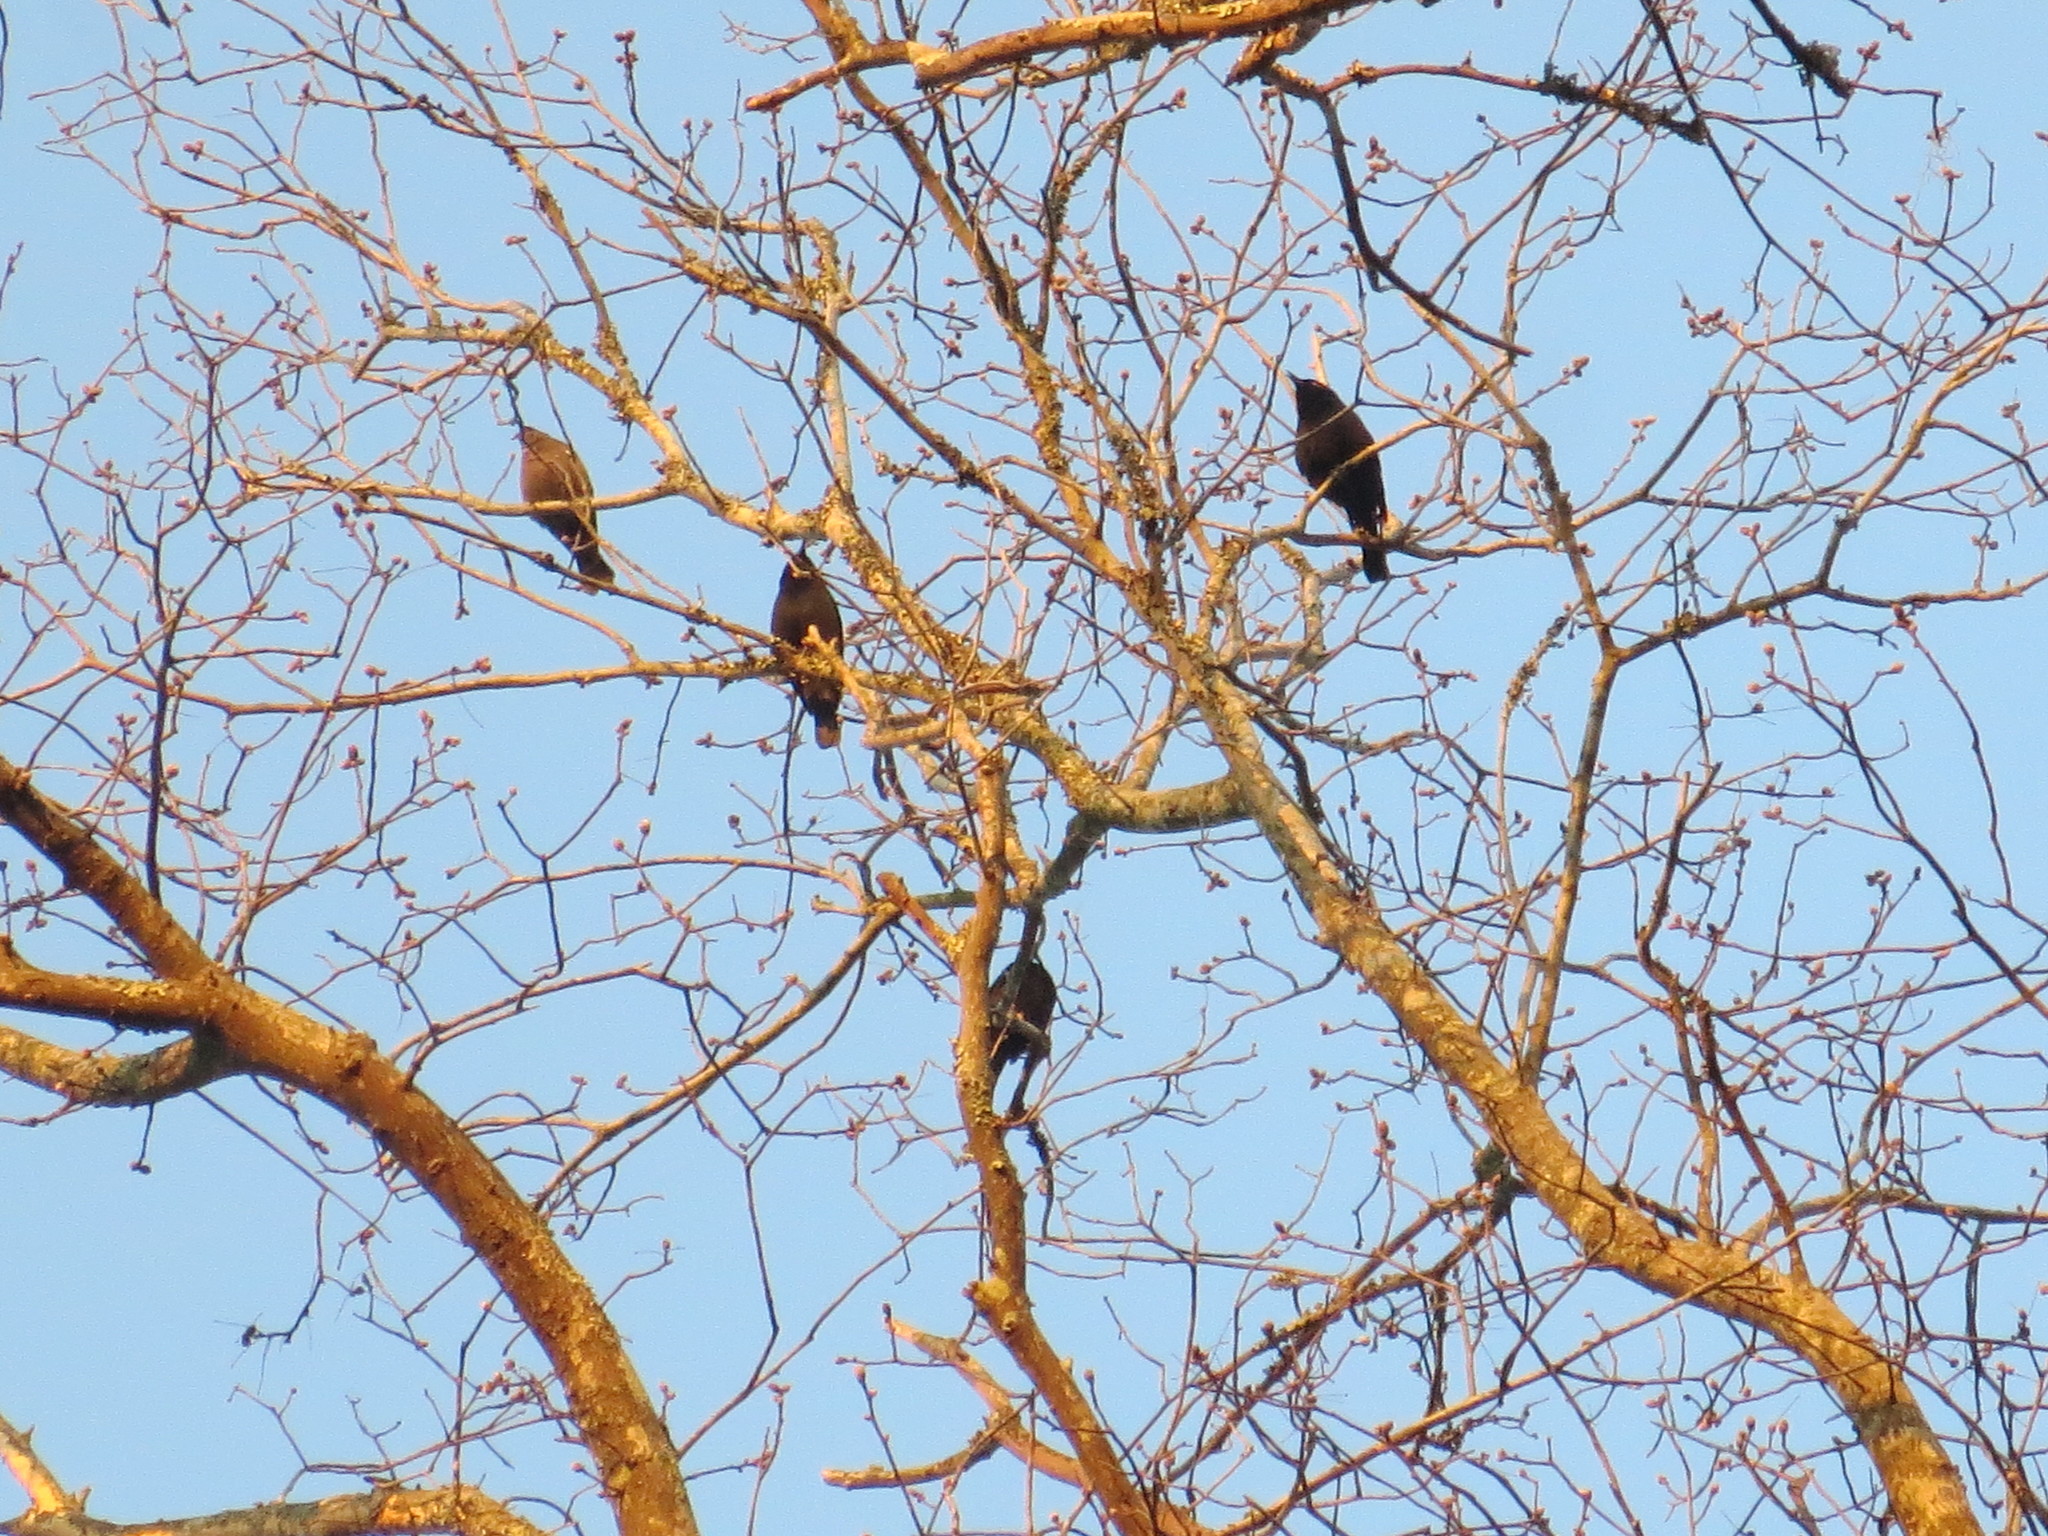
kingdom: Animalia
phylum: Chordata
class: Aves
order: Passeriformes
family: Icteridae
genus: Euphagus
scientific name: Euphagus carolinus
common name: Rusty blackbird
